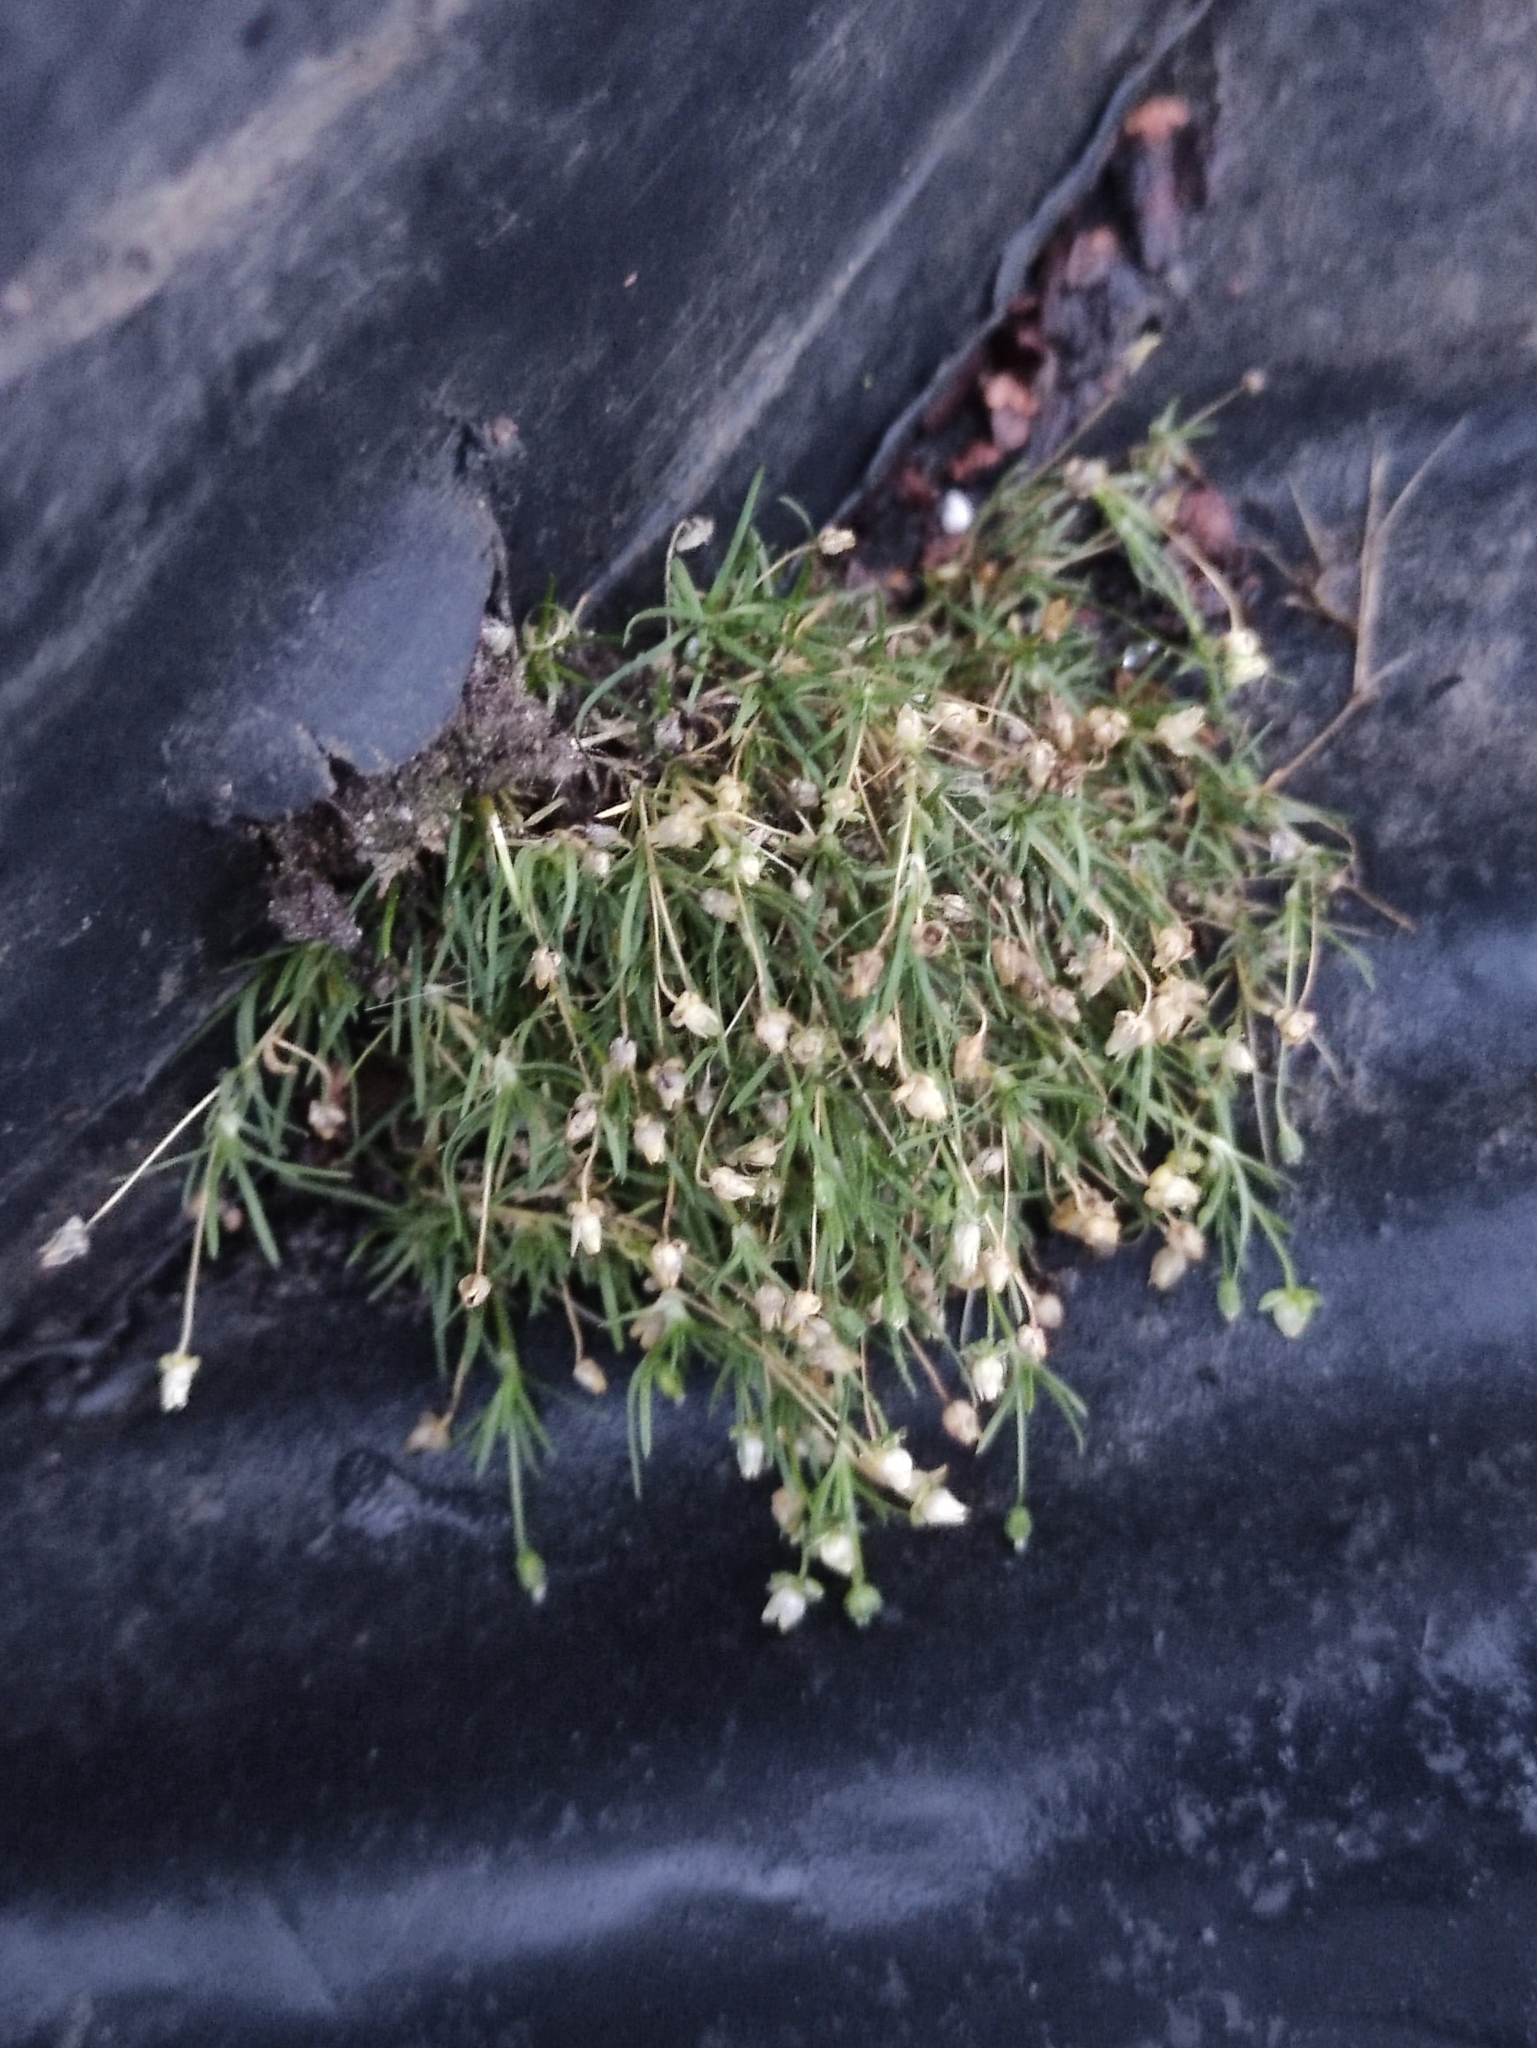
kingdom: Plantae
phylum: Tracheophyta
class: Magnoliopsida
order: Caryophyllales
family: Caryophyllaceae
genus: Sagina
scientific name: Sagina procumbens
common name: Procumbent pearlwort
